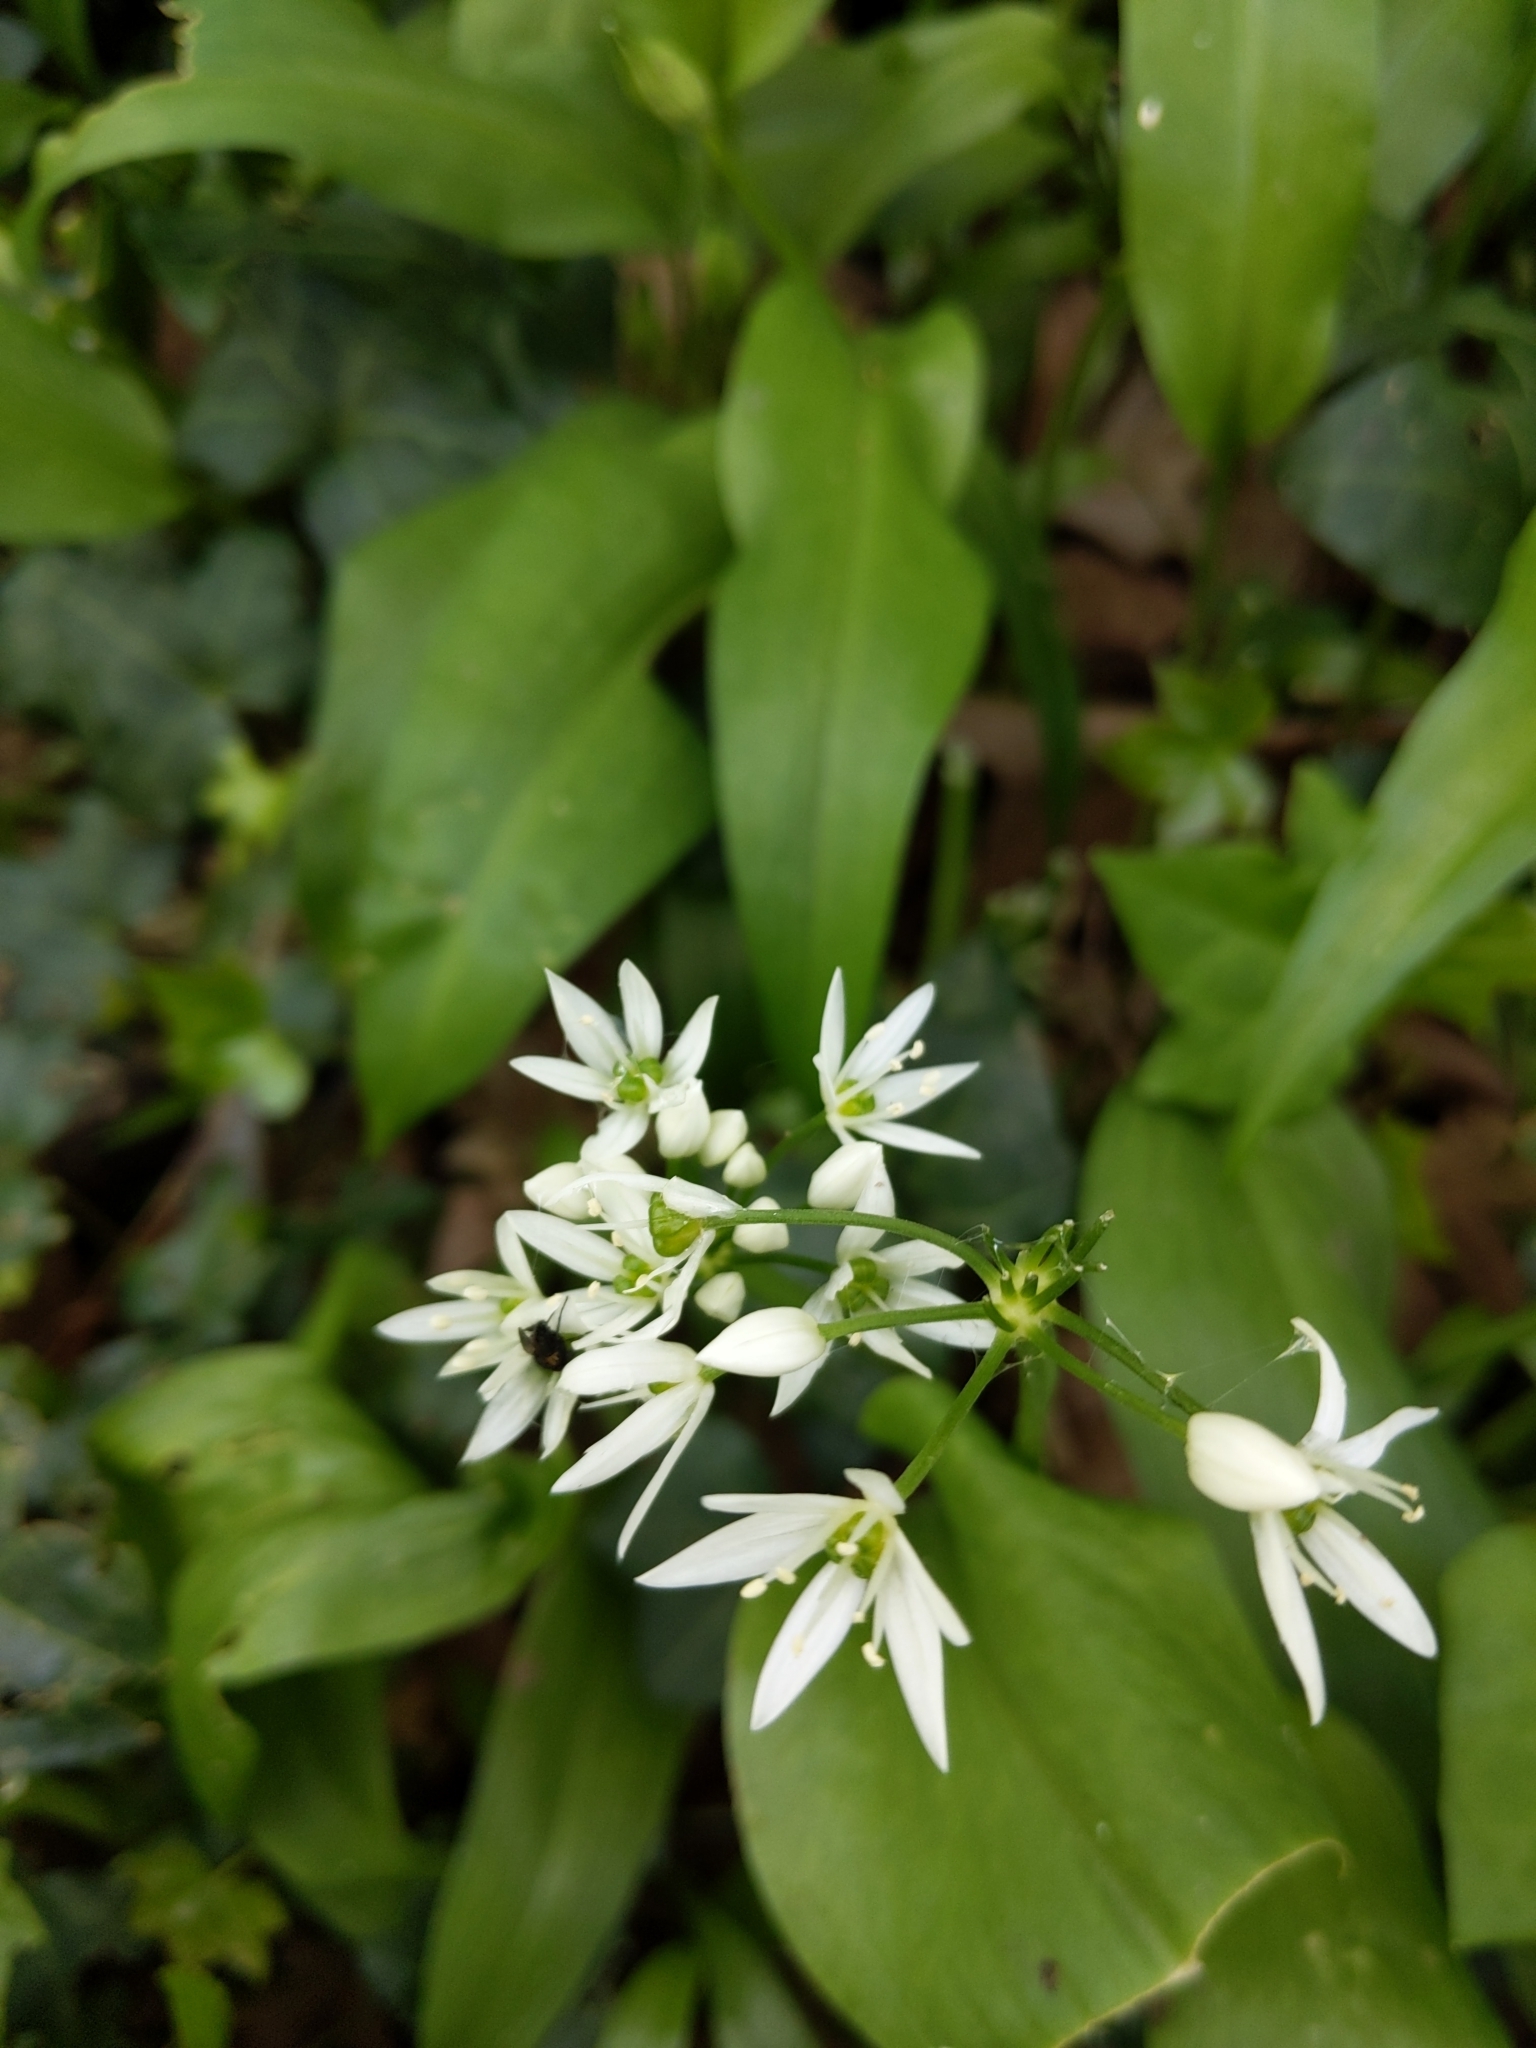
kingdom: Plantae
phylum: Tracheophyta
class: Liliopsida
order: Asparagales
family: Amaryllidaceae
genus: Allium
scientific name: Allium ursinum
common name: Ramsons
